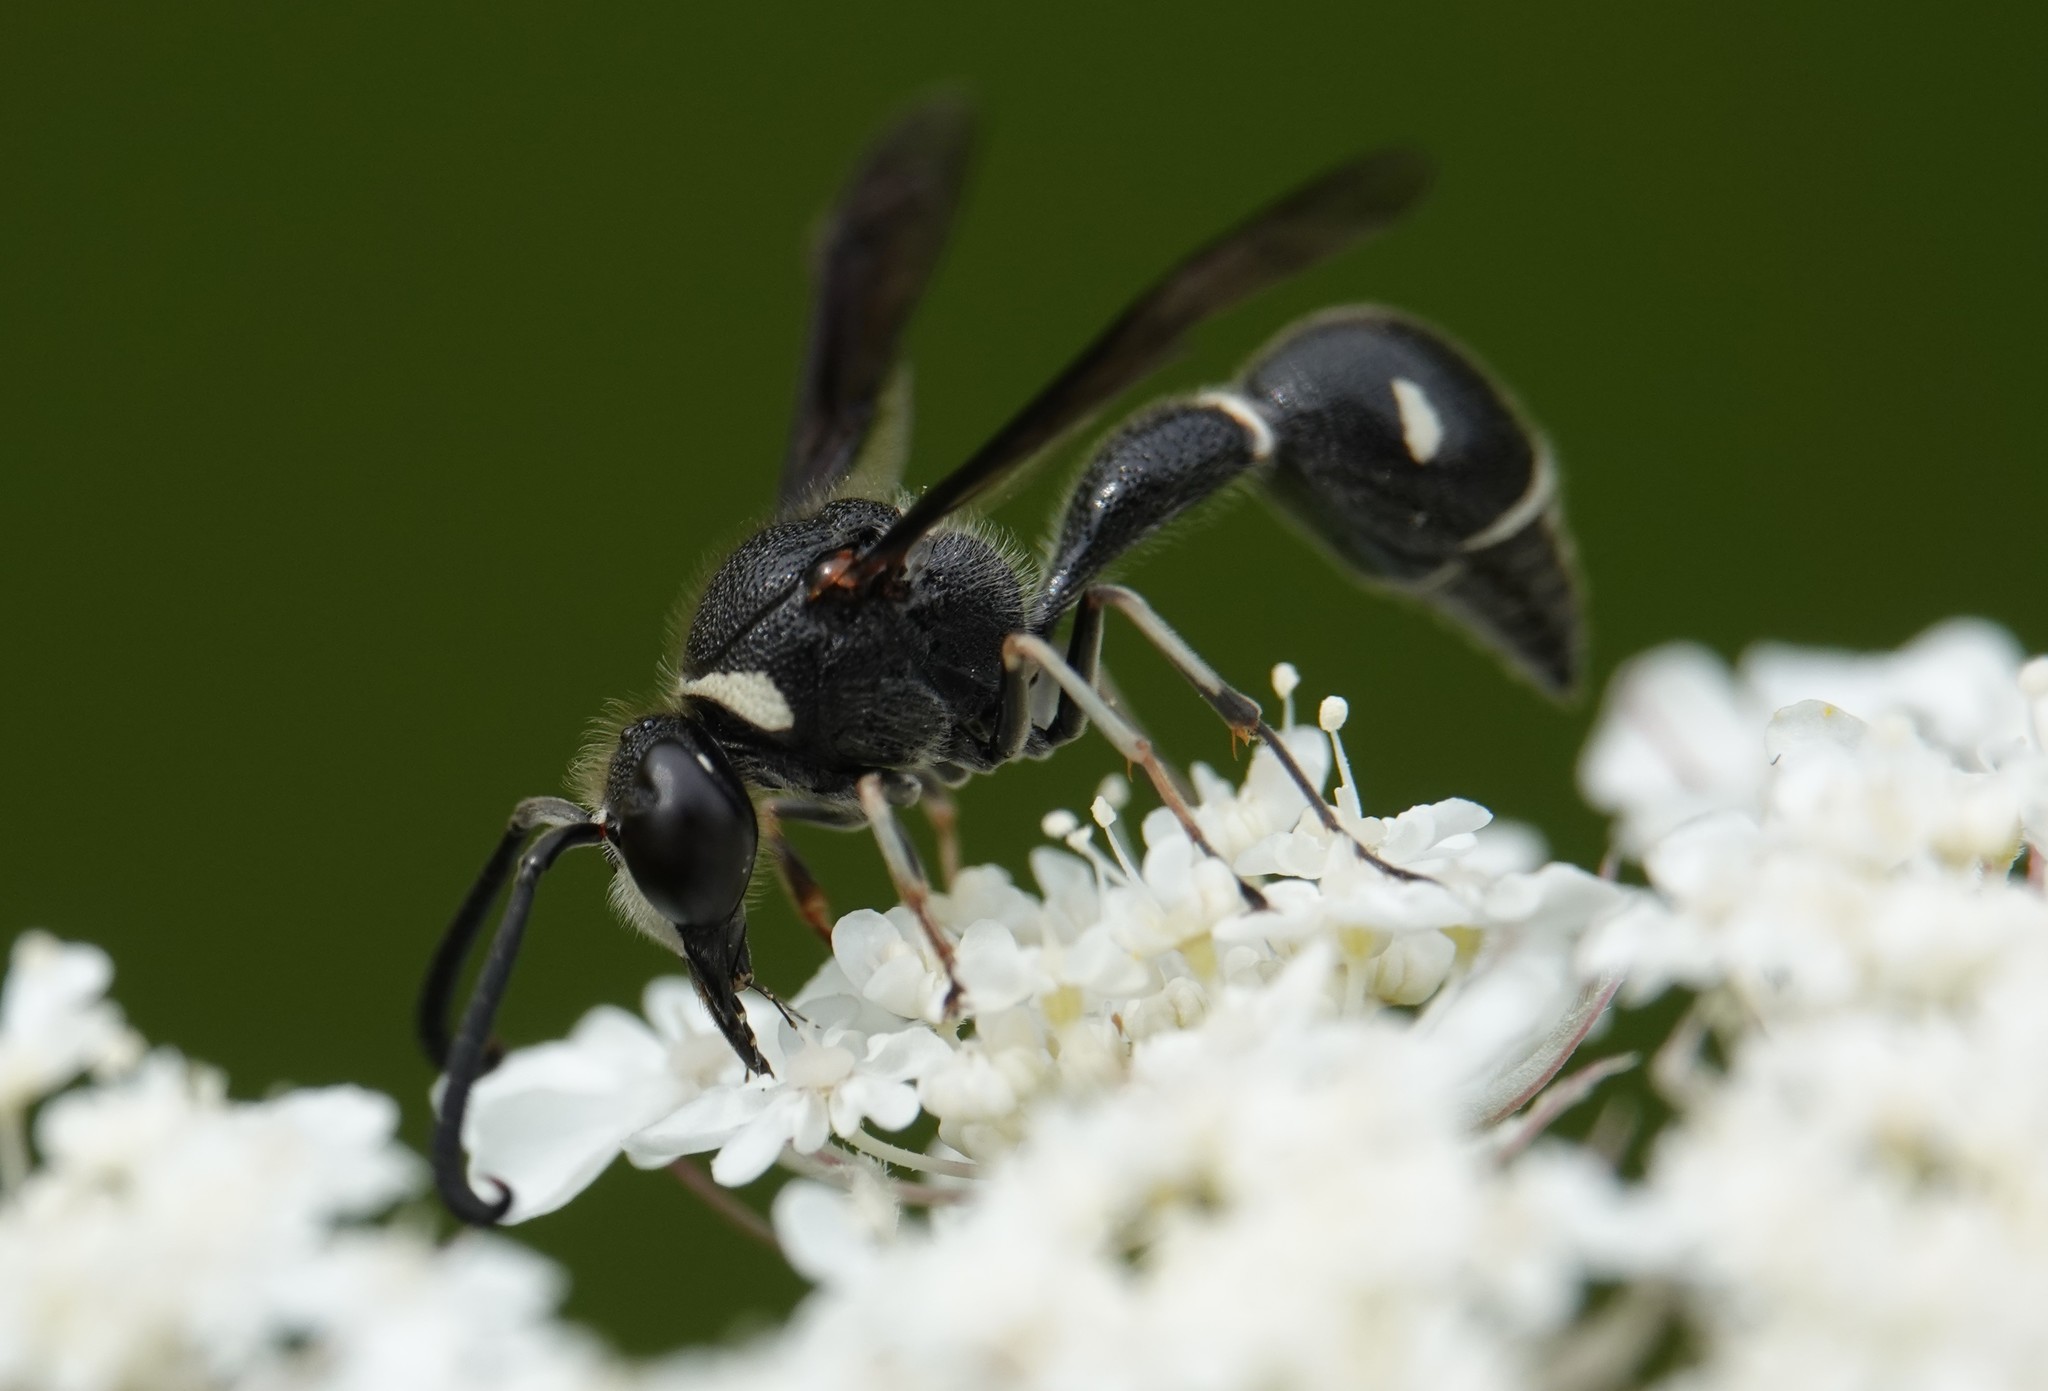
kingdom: Animalia
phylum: Arthropoda
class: Insecta
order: Hymenoptera
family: Vespidae
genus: Eumenes
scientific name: Eumenes fraternus
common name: Fraternal potter wasp
